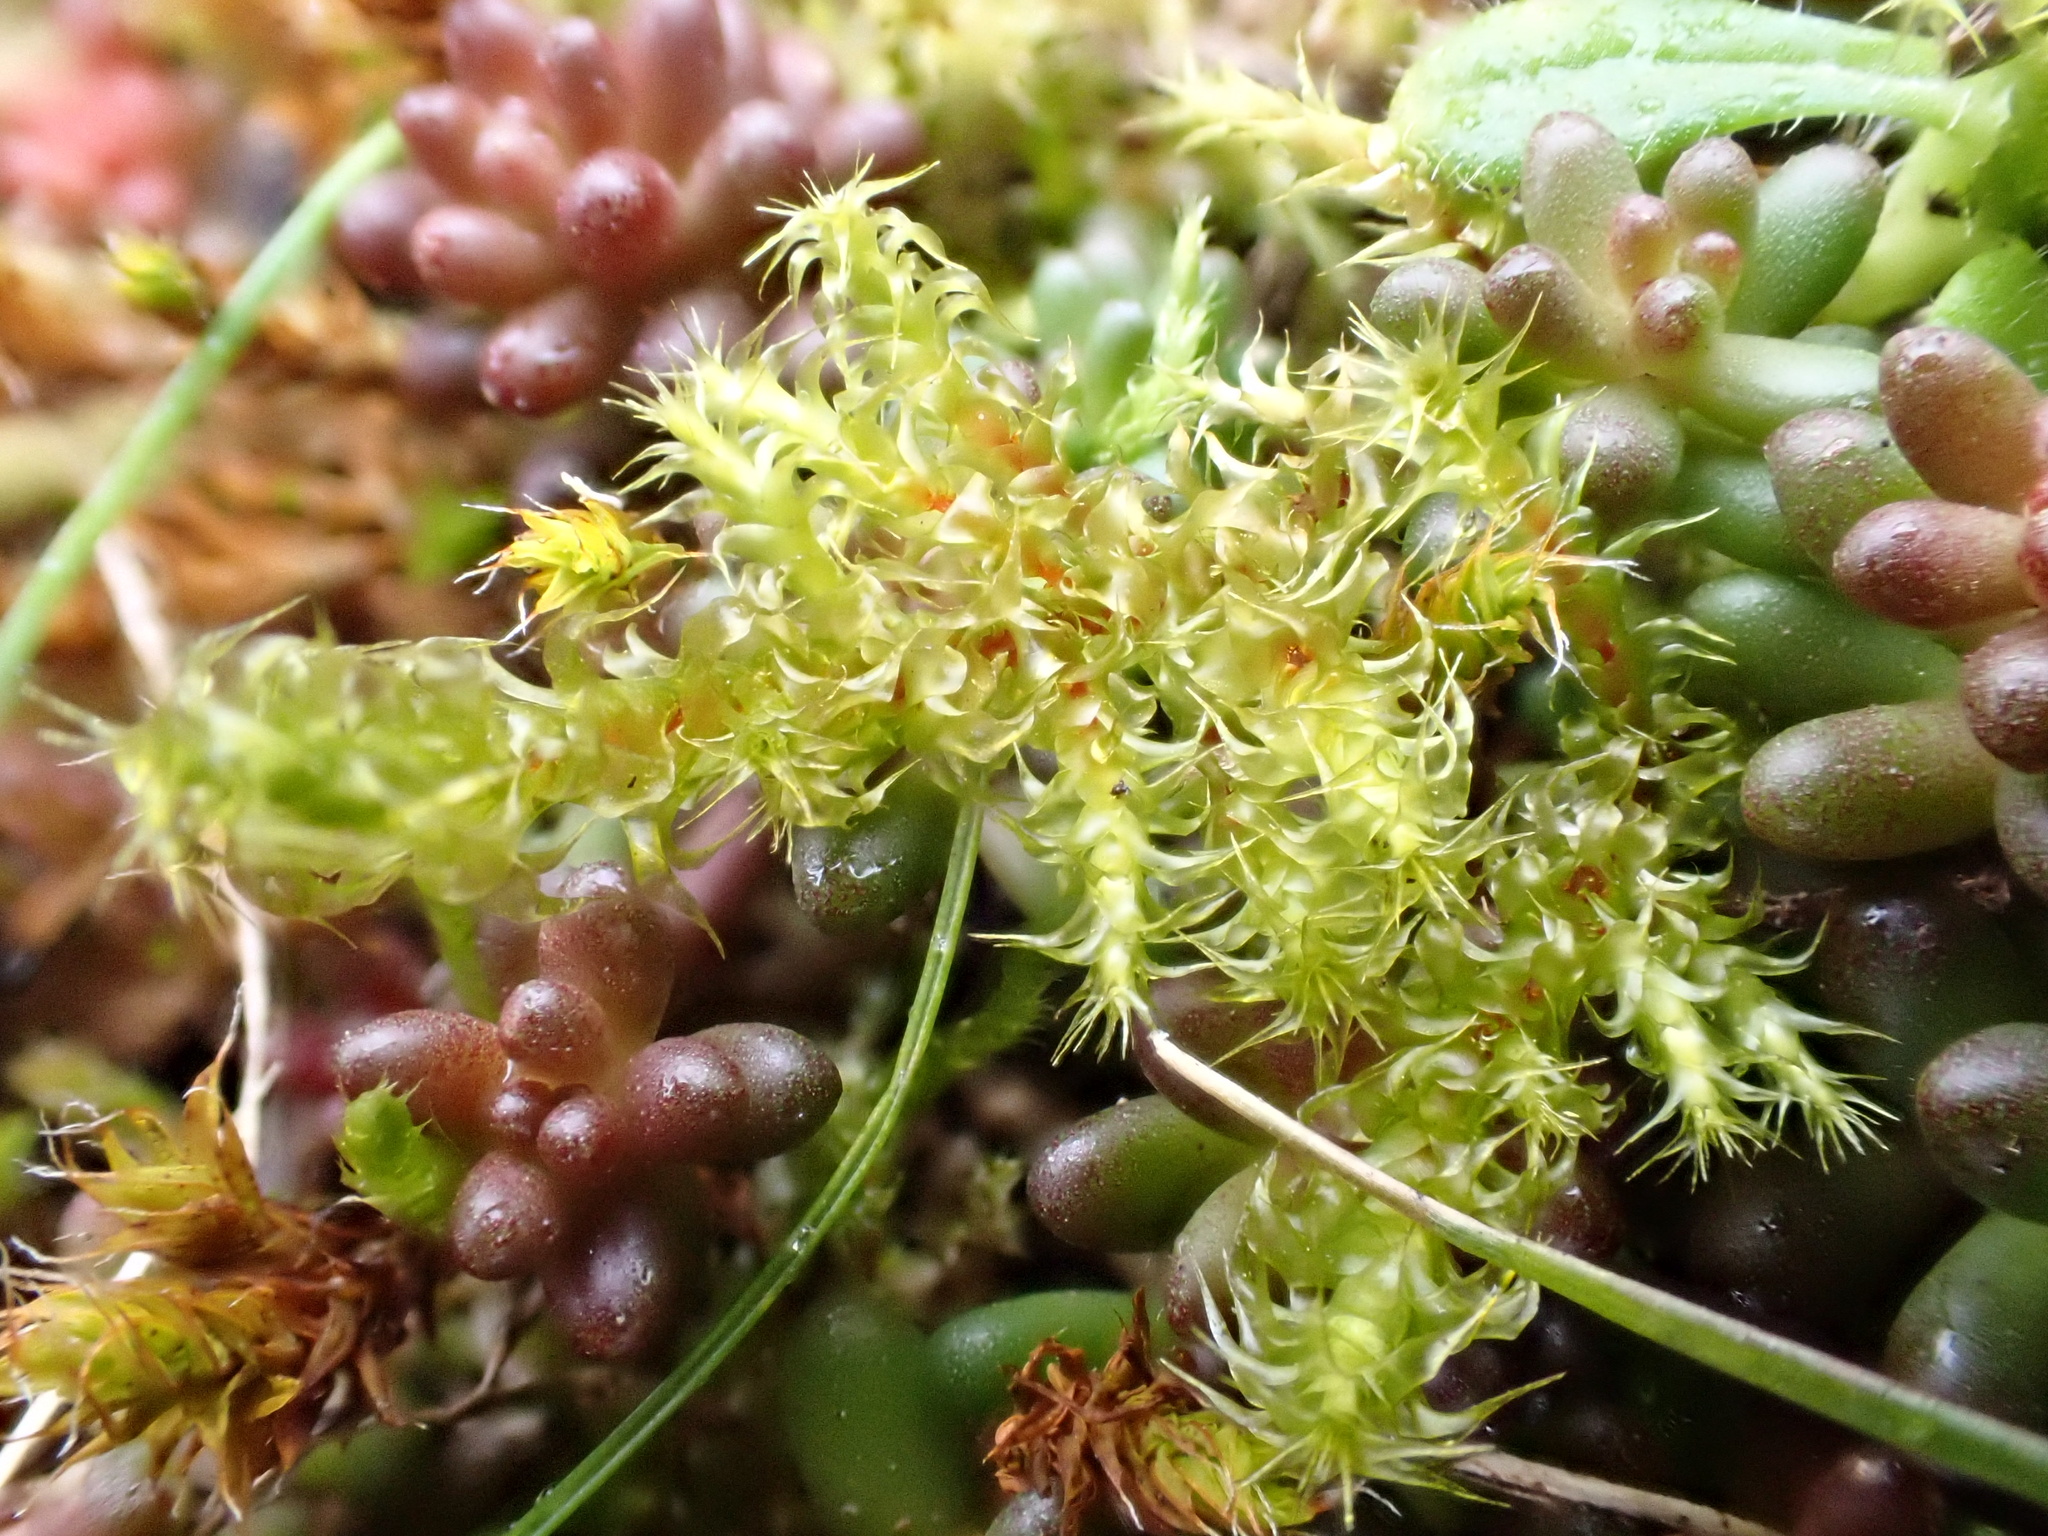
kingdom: Plantae
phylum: Bryophyta
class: Bryopsida
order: Hypnales
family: Hylocomiaceae
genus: Rhytidiadelphus
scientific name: Rhytidiadelphus squarrosus
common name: Springy turf-moss
